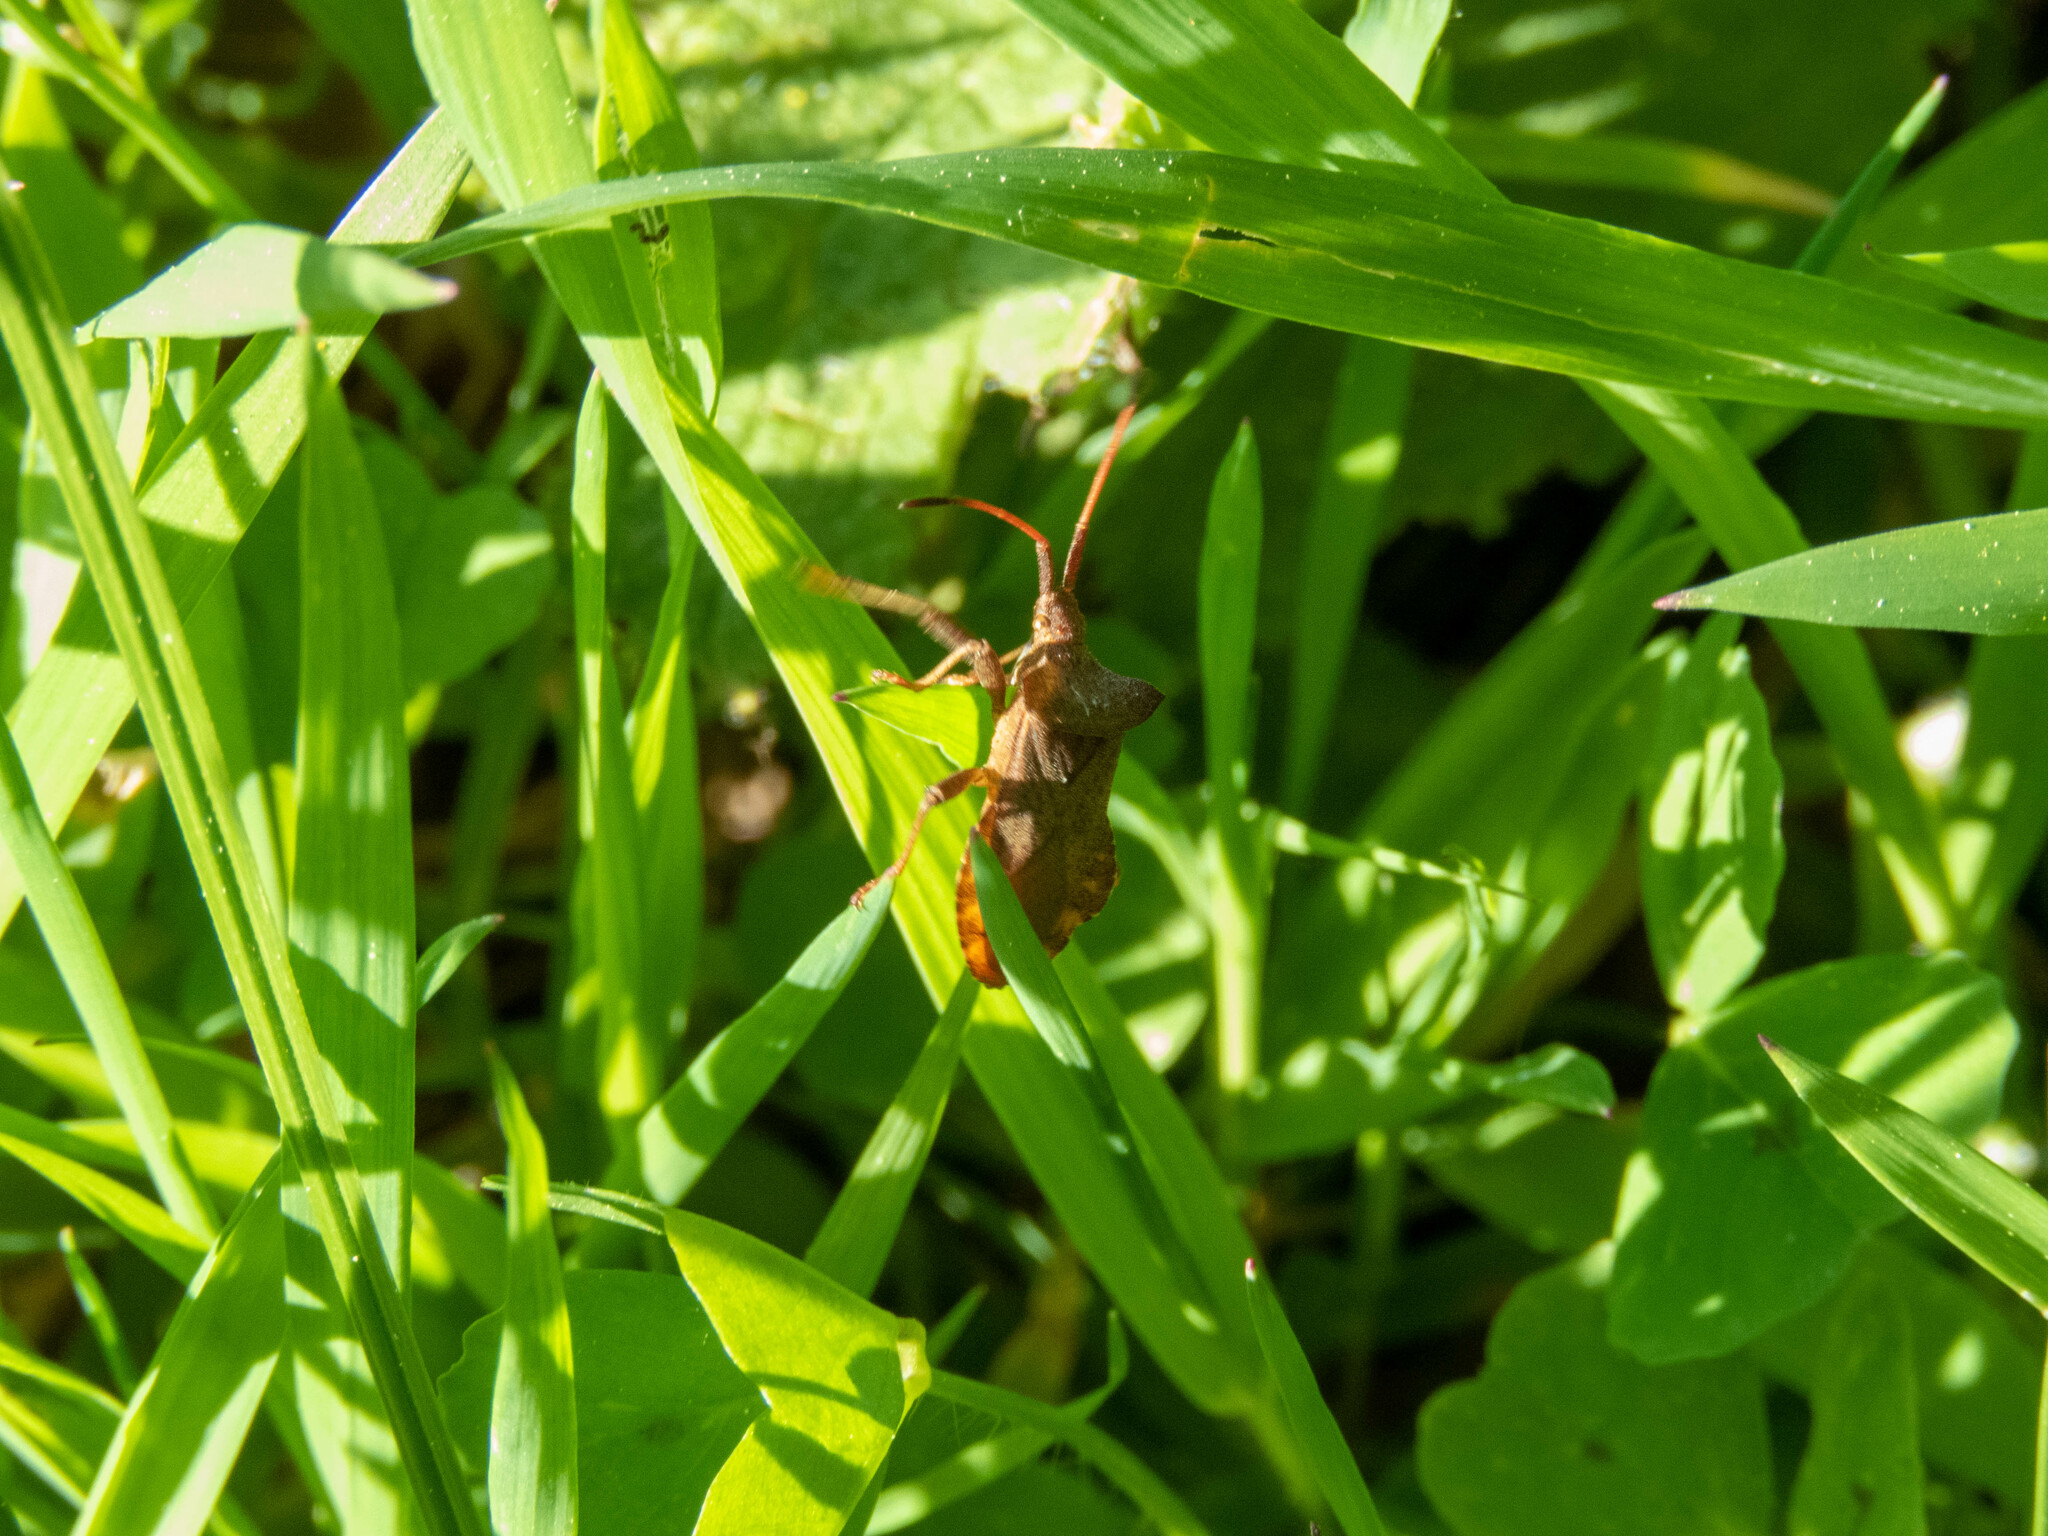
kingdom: Animalia
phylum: Arthropoda
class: Insecta
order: Hemiptera
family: Coreidae
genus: Coreus
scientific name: Coreus marginatus
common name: Dock bug
